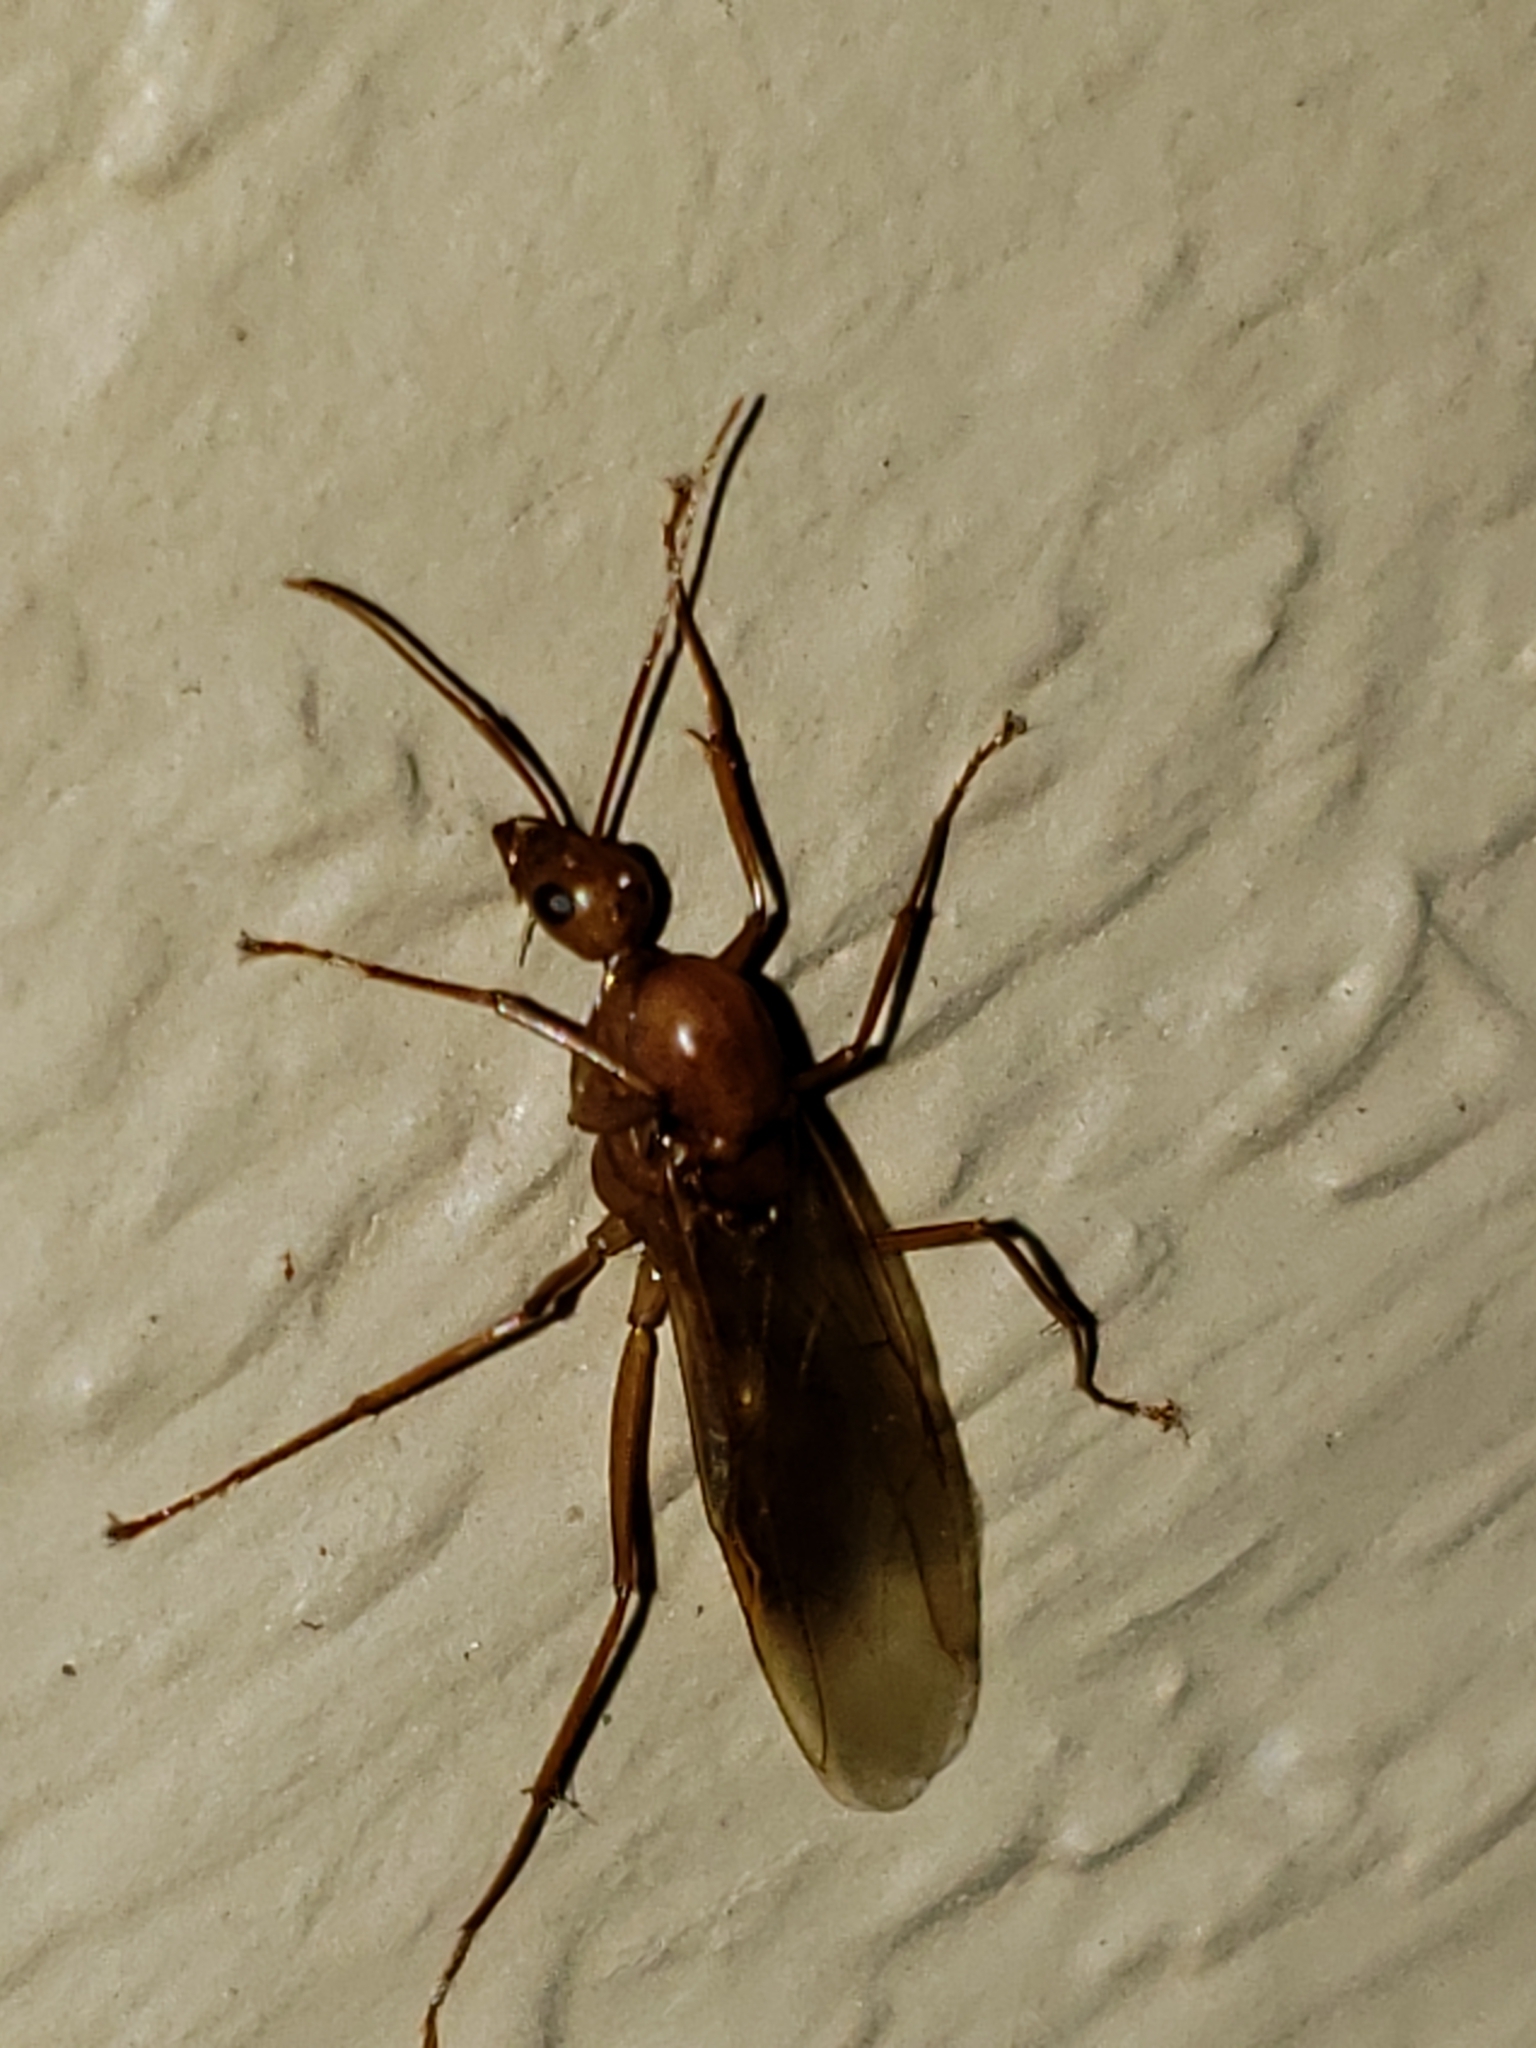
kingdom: Animalia
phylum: Arthropoda
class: Insecta
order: Hymenoptera
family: Formicidae
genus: Camponotus
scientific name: Camponotus castaneus
